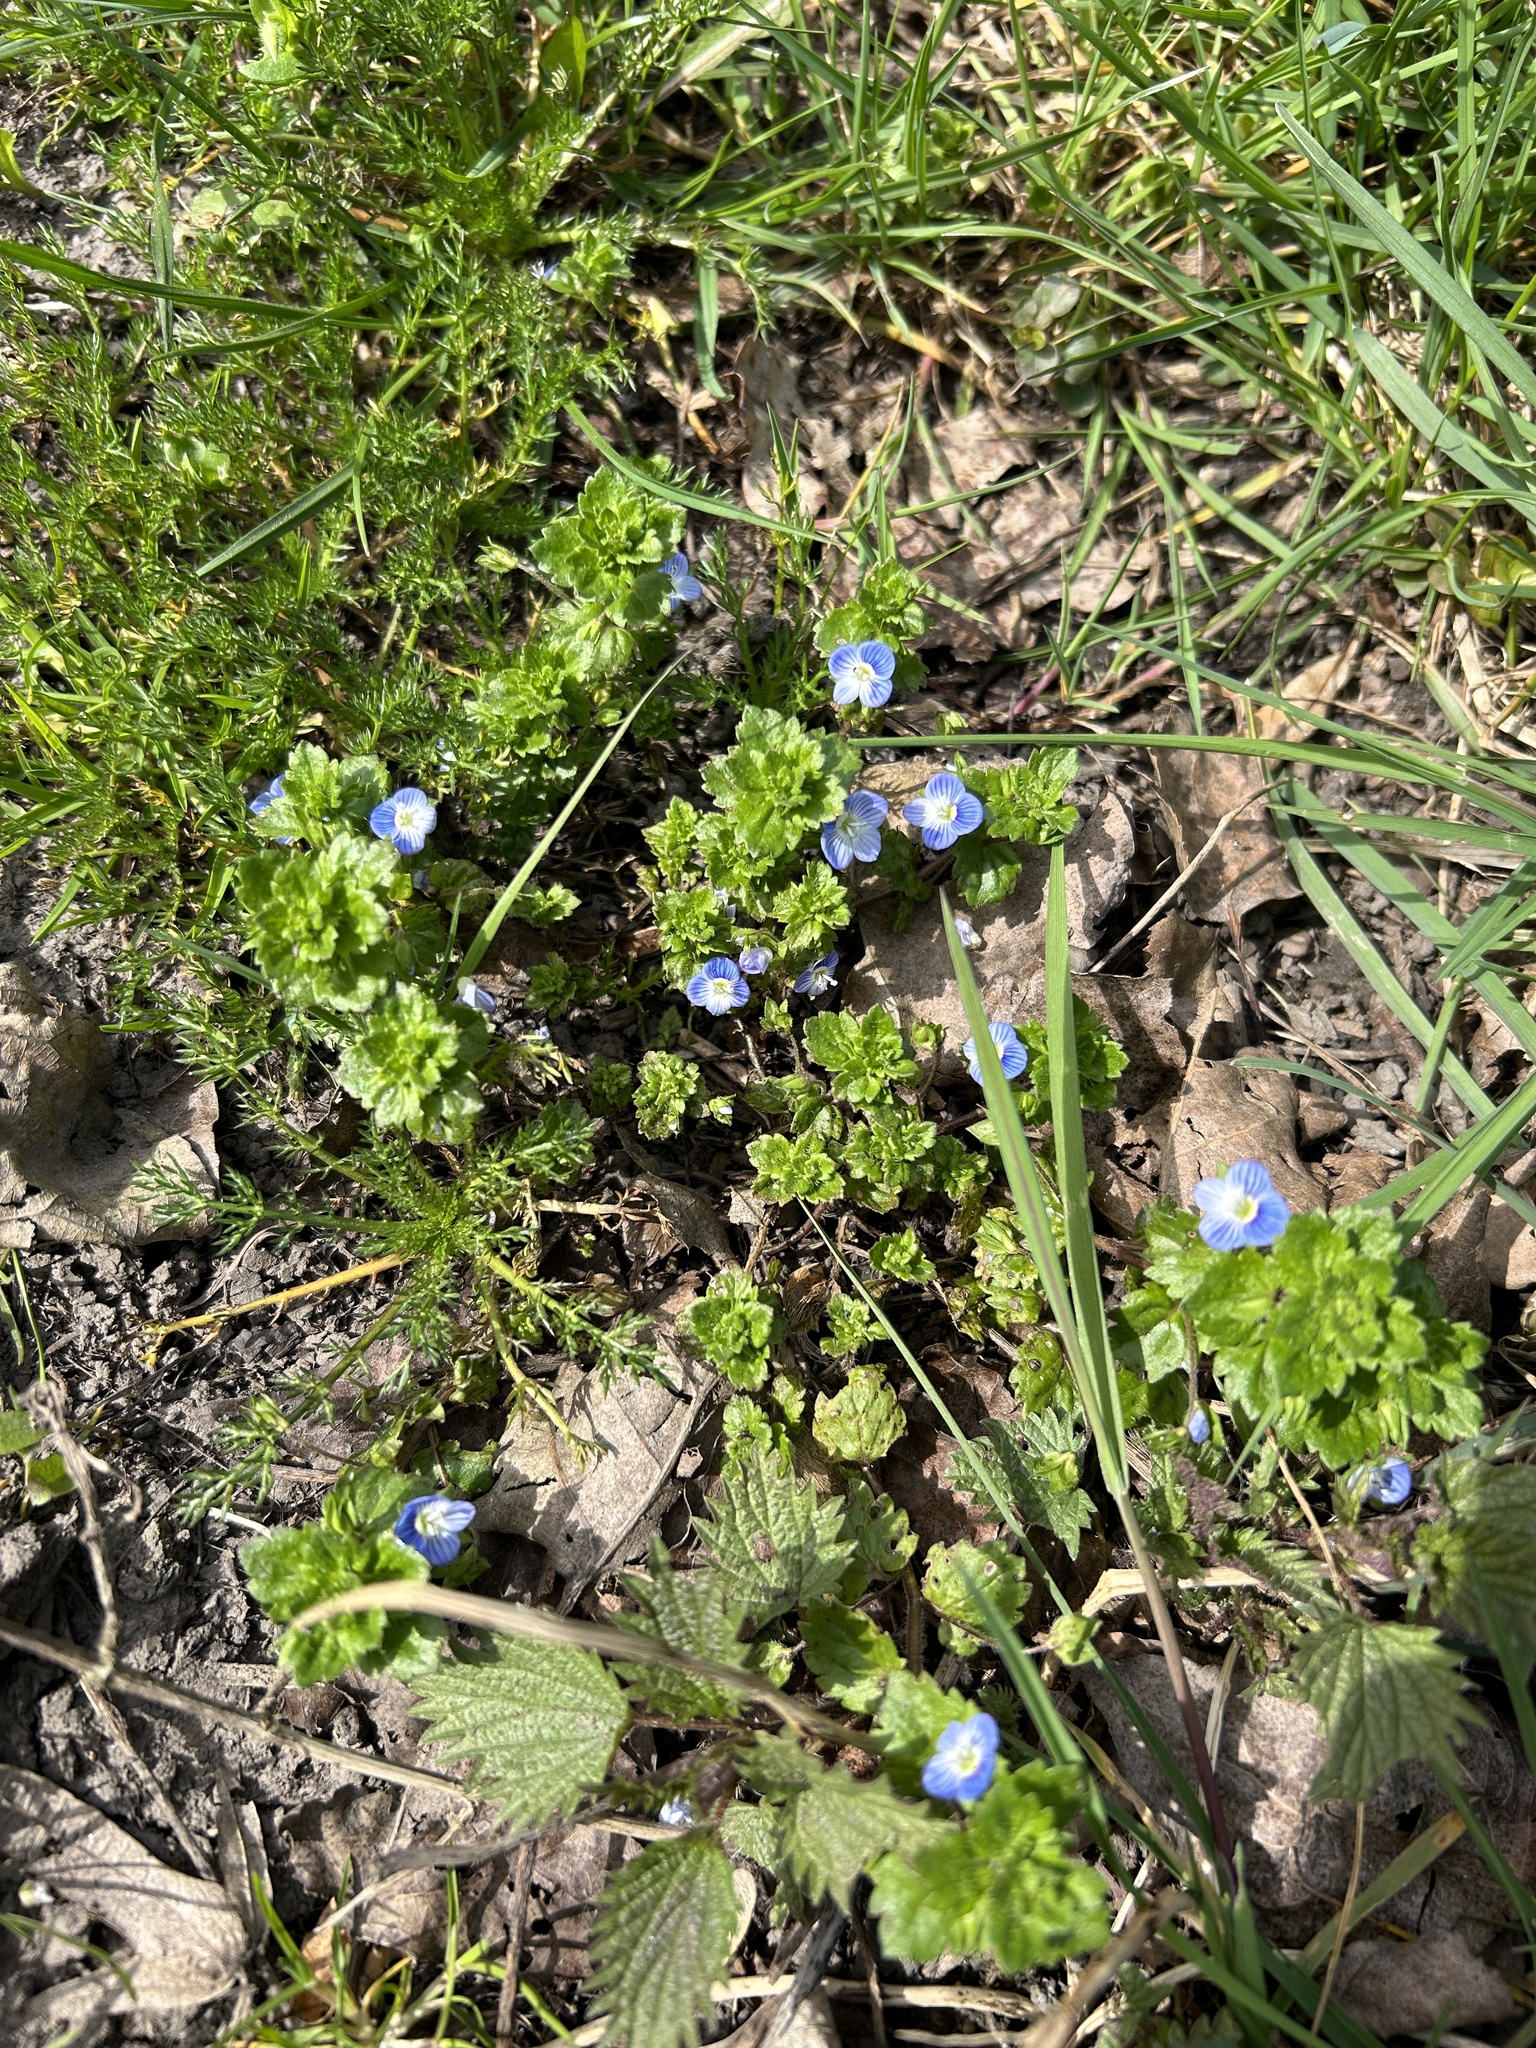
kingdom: Plantae
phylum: Tracheophyta
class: Magnoliopsida
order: Lamiales
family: Plantaginaceae
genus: Veronica
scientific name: Veronica persica
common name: Common field-speedwell
